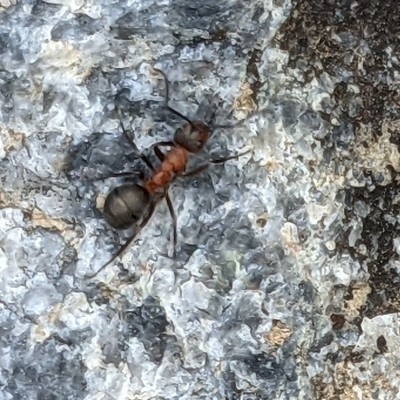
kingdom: Animalia
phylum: Arthropoda
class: Insecta
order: Hymenoptera
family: Formicidae
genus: Formica
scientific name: Formica
